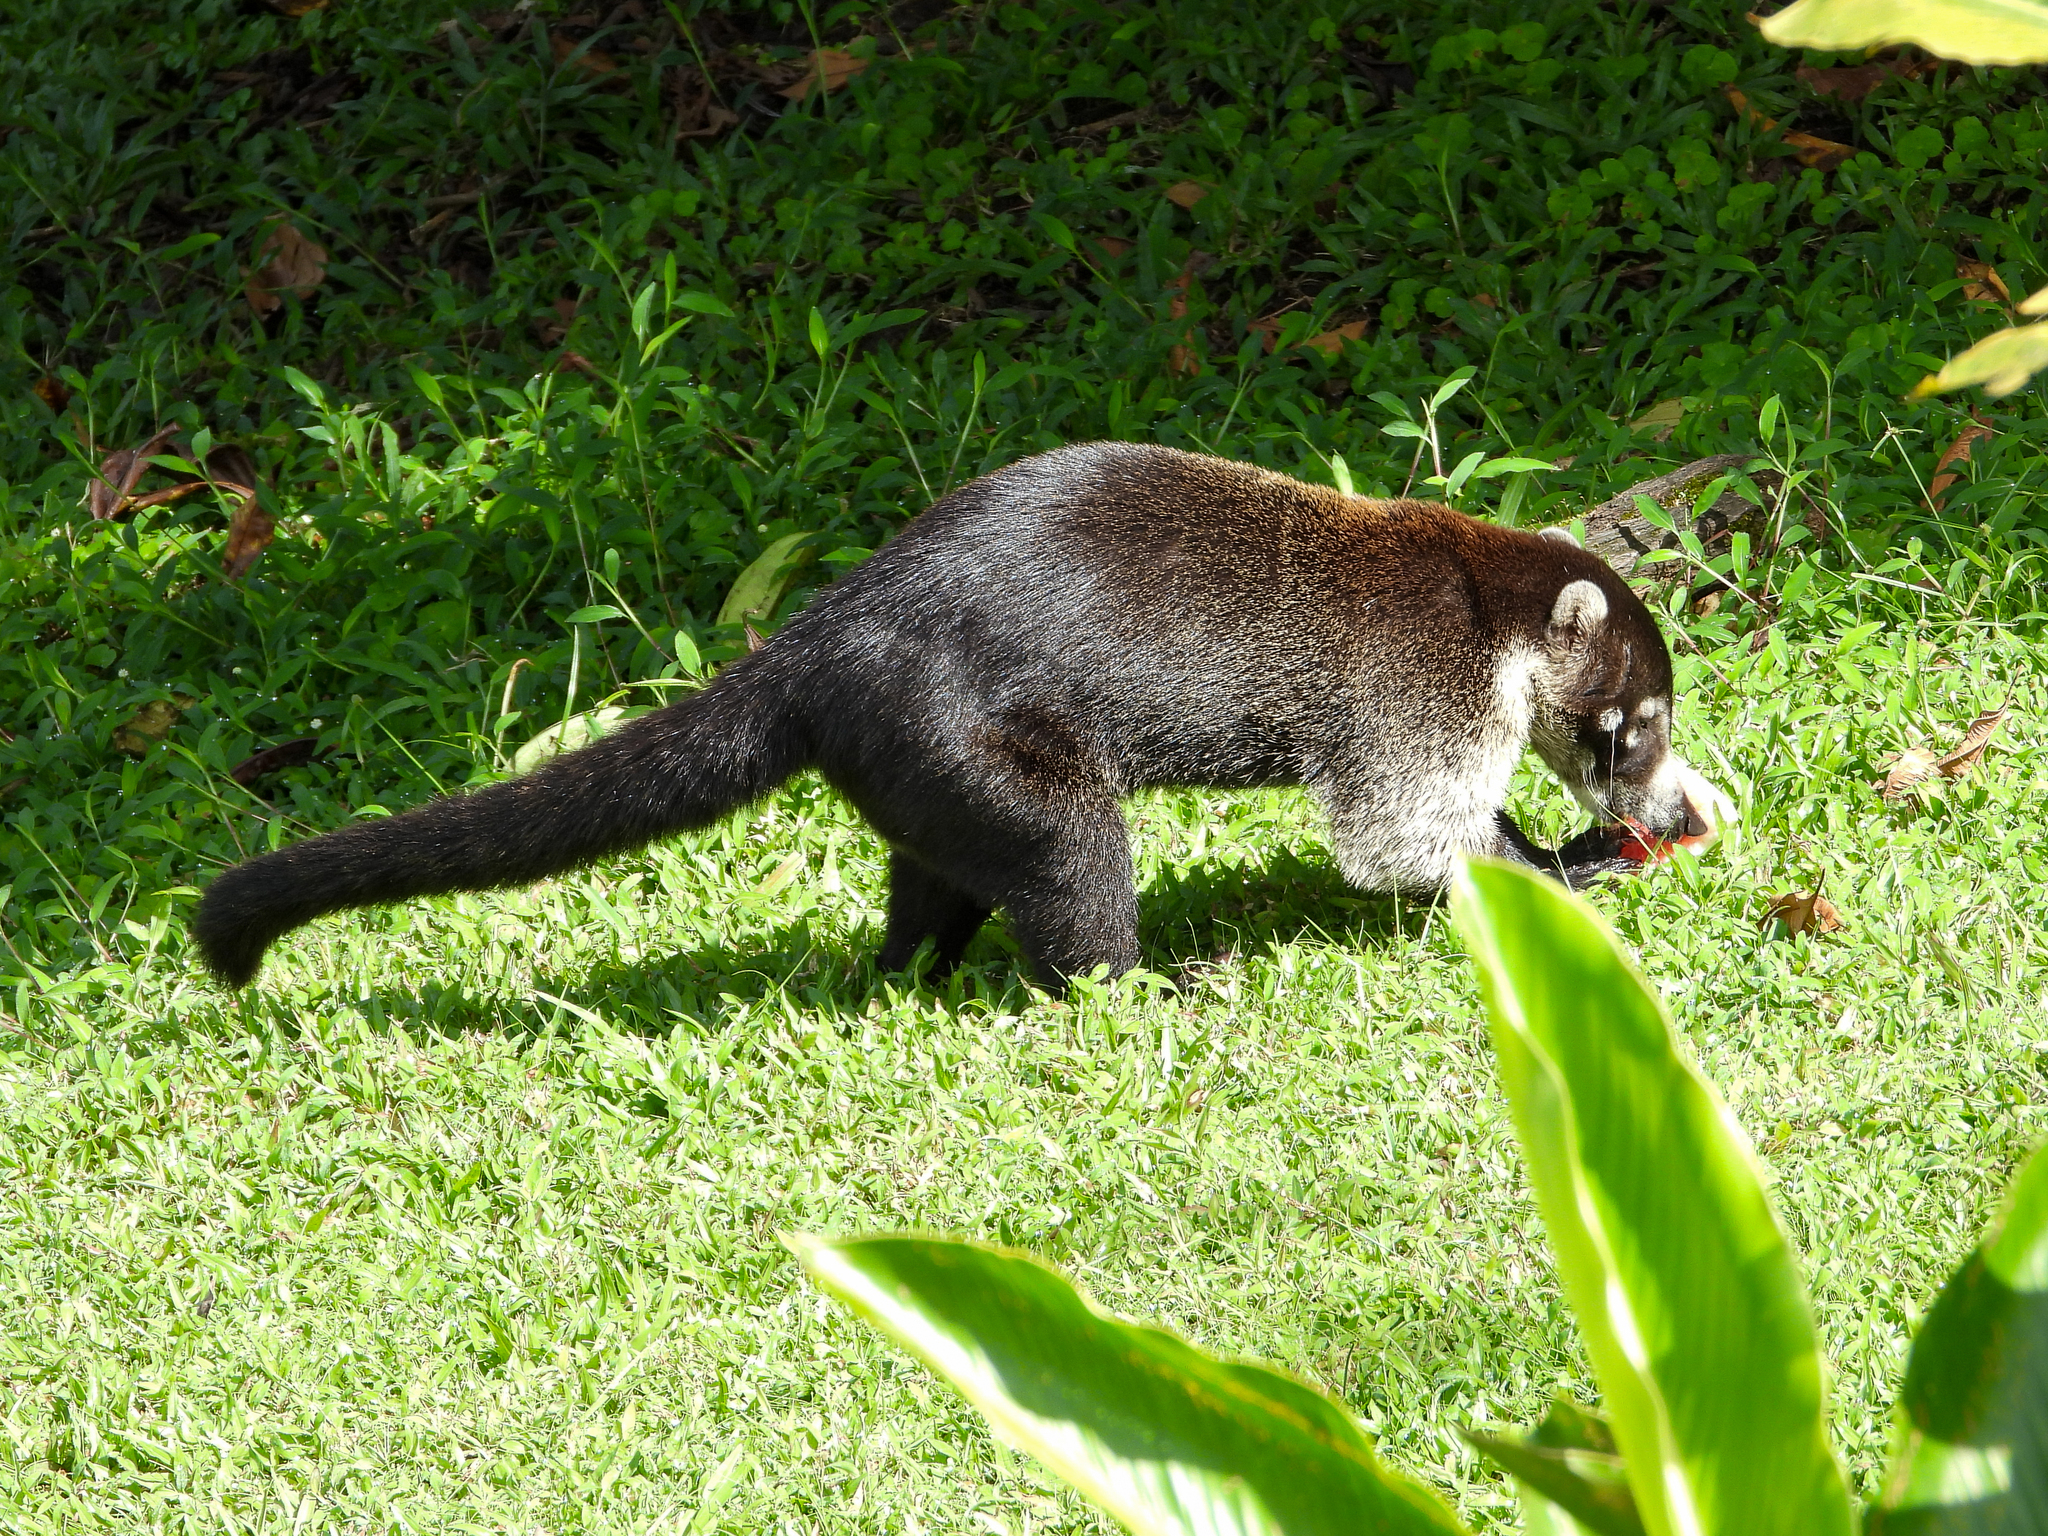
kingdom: Animalia
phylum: Chordata
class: Mammalia
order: Carnivora
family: Procyonidae
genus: Nasua
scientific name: Nasua narica
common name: White-nosed coati
